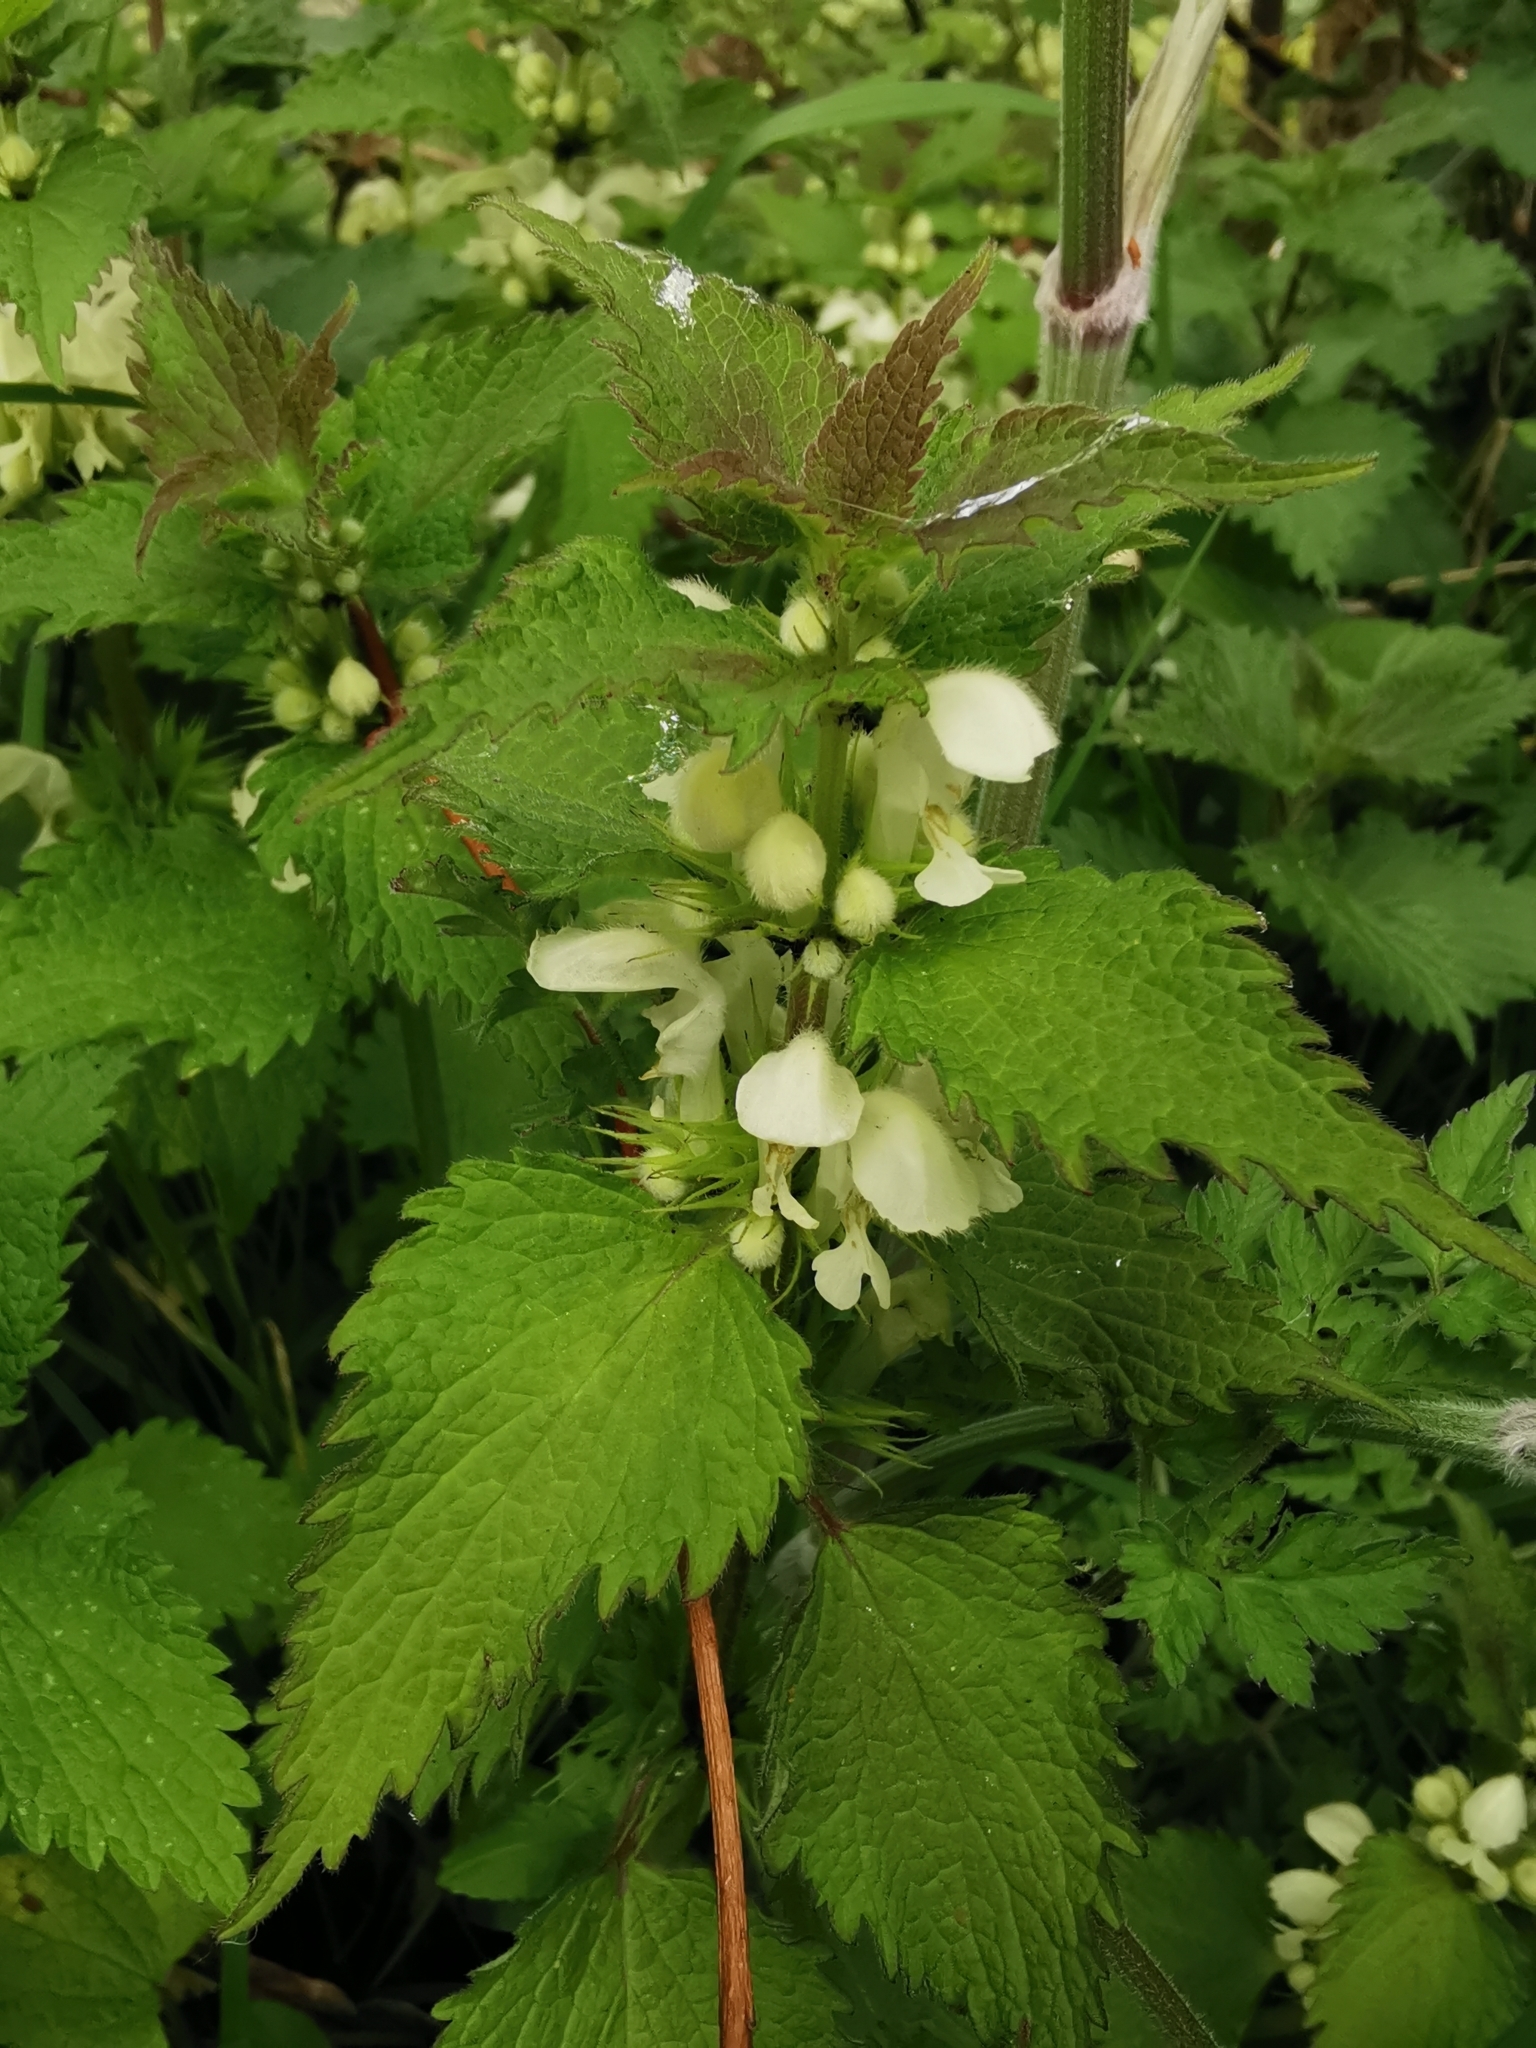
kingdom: Plantae
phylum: Tracheophyta
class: Magnoliopsida
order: Lamiales
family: Lamiaceae
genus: Lamium
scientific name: Lamium album
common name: White dead-nettle
